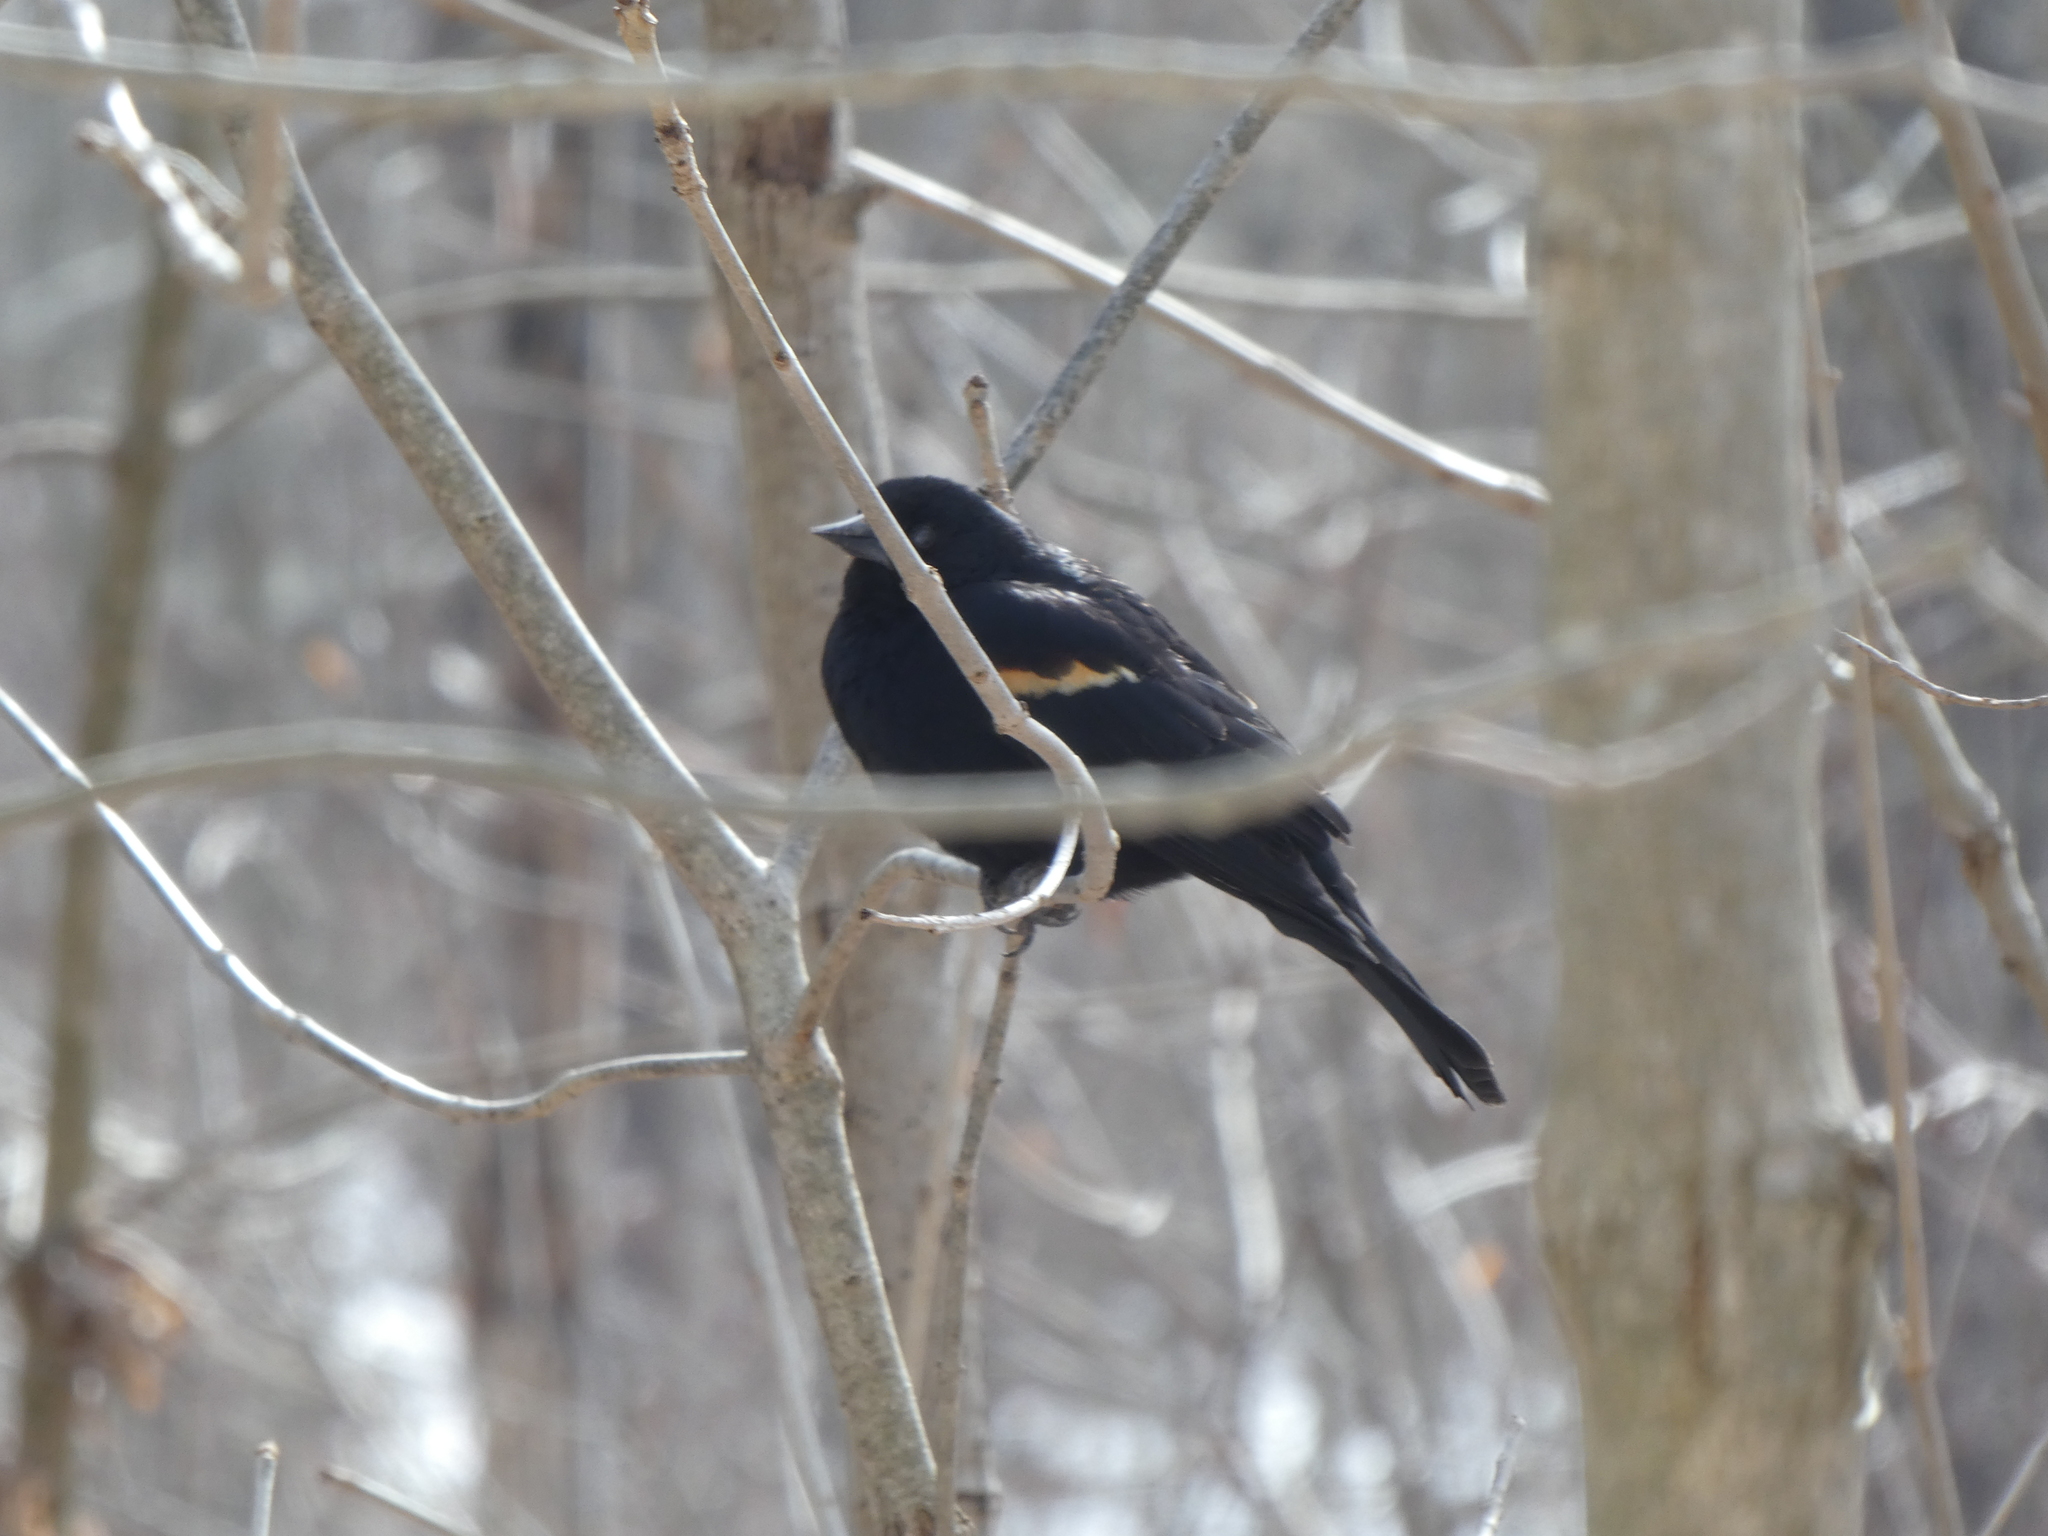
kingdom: Animalia
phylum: Chordata
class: Aves
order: Passeriformes
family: Icteridae
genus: Agelaius
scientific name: Agelaius phoeniceus
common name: Red-winged blackbird
